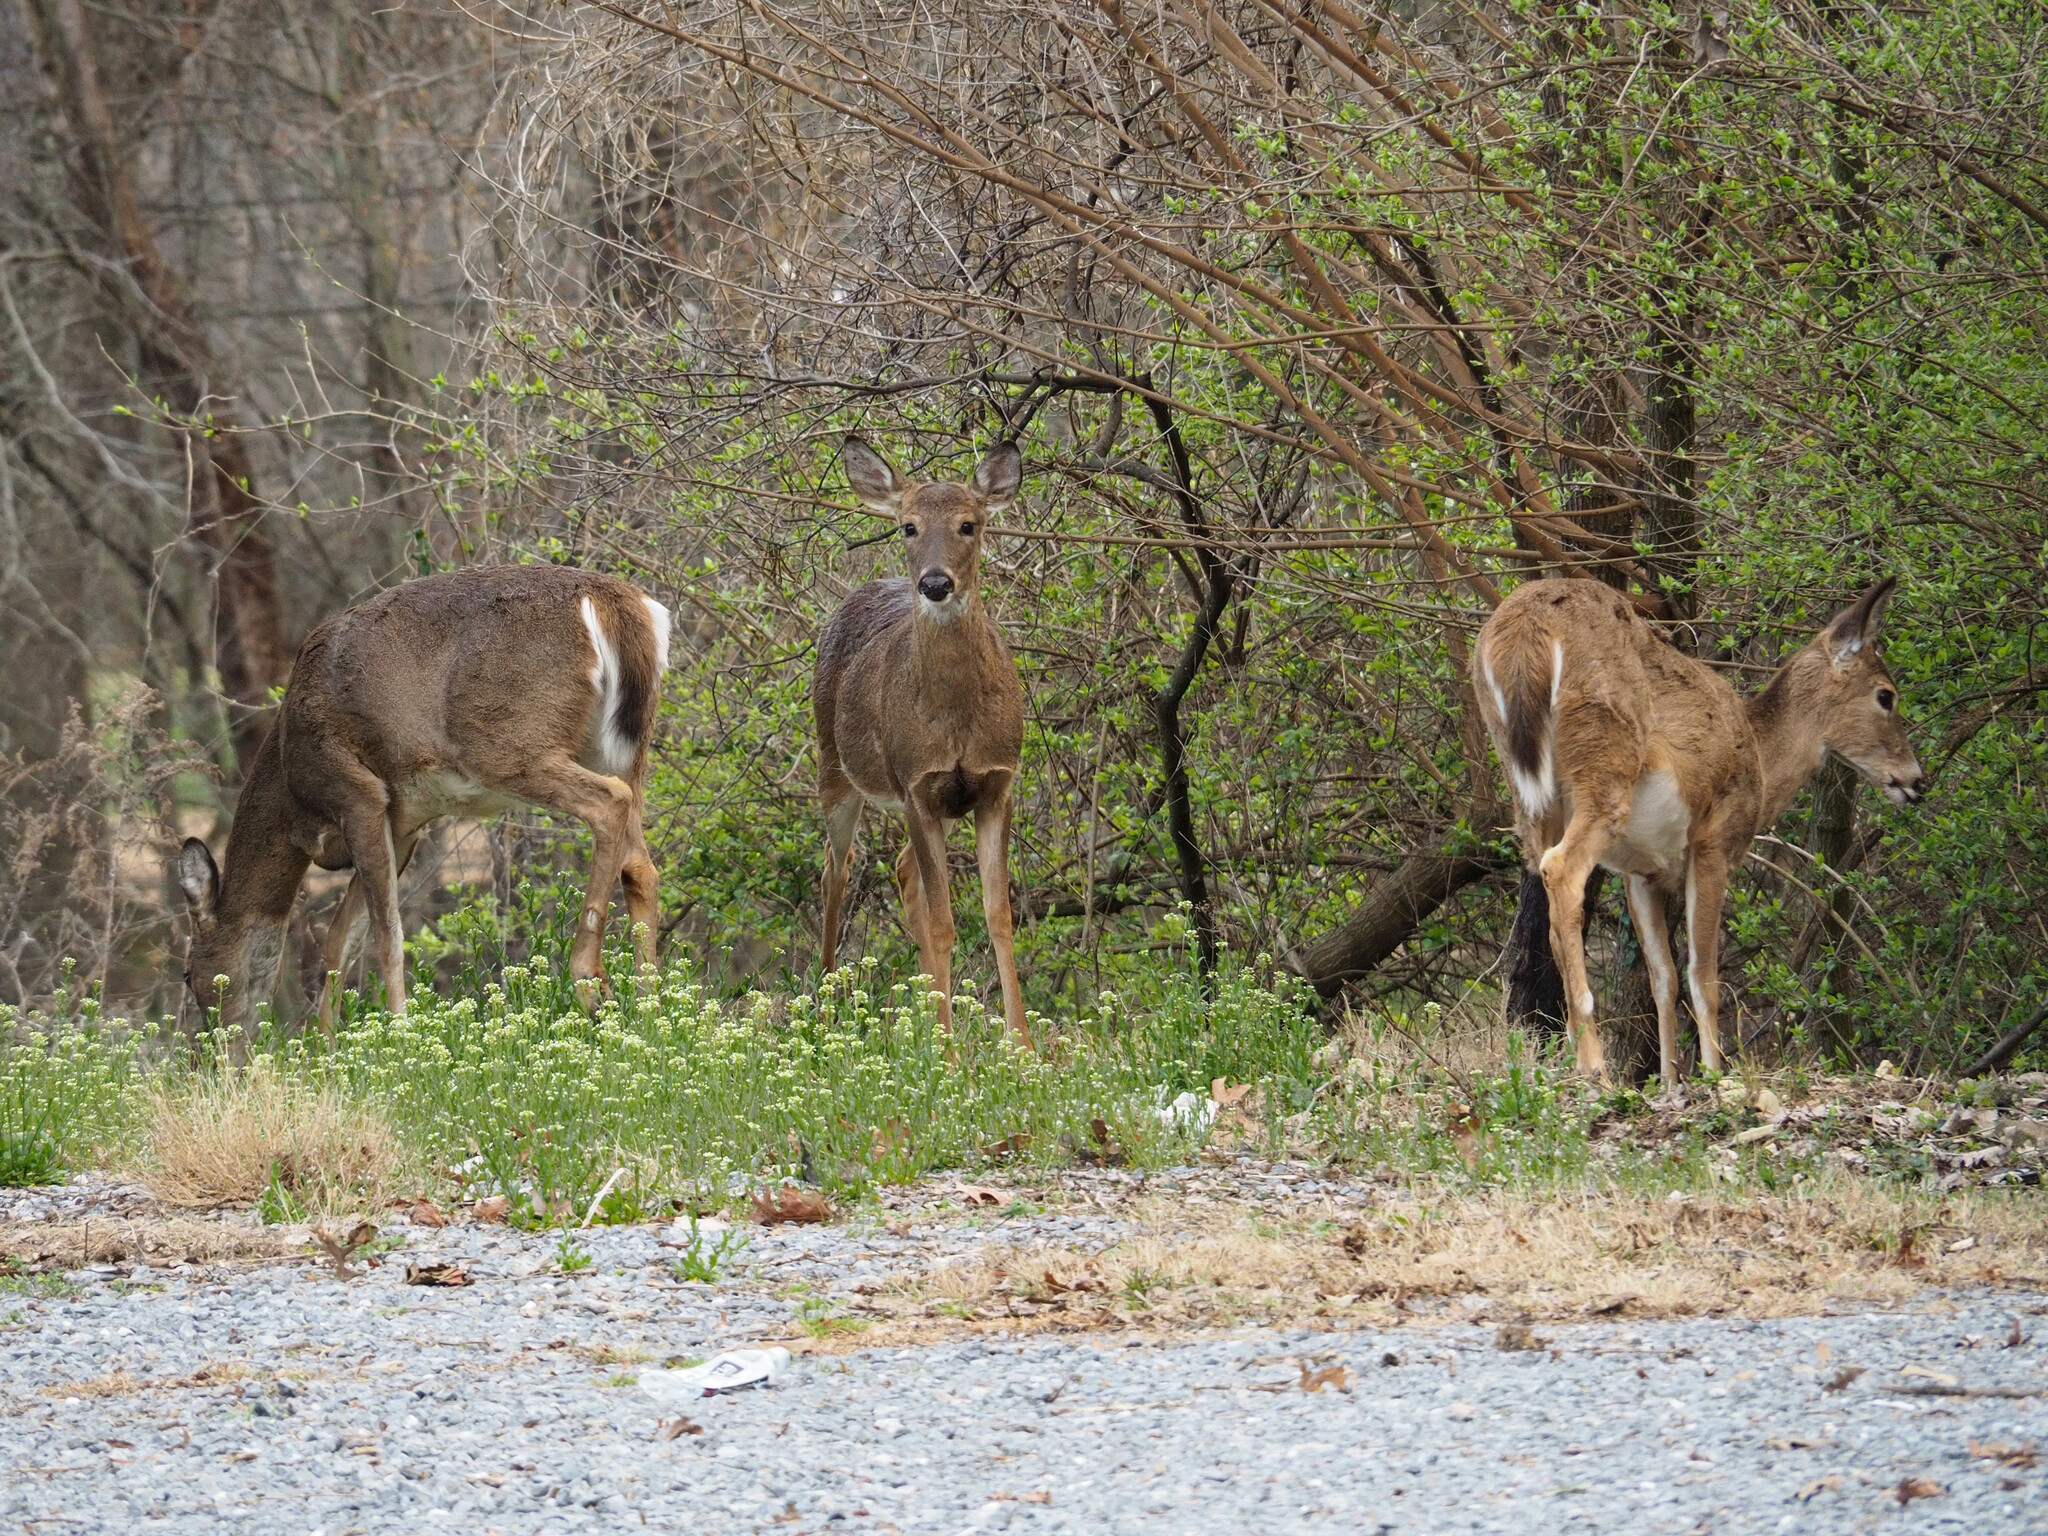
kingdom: Animalia
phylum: Chordata
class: Mammalia
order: Artiodactyla
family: Cervidae
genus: Odocoileus
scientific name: Odocoileus virginianus
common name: White-tailed deer
